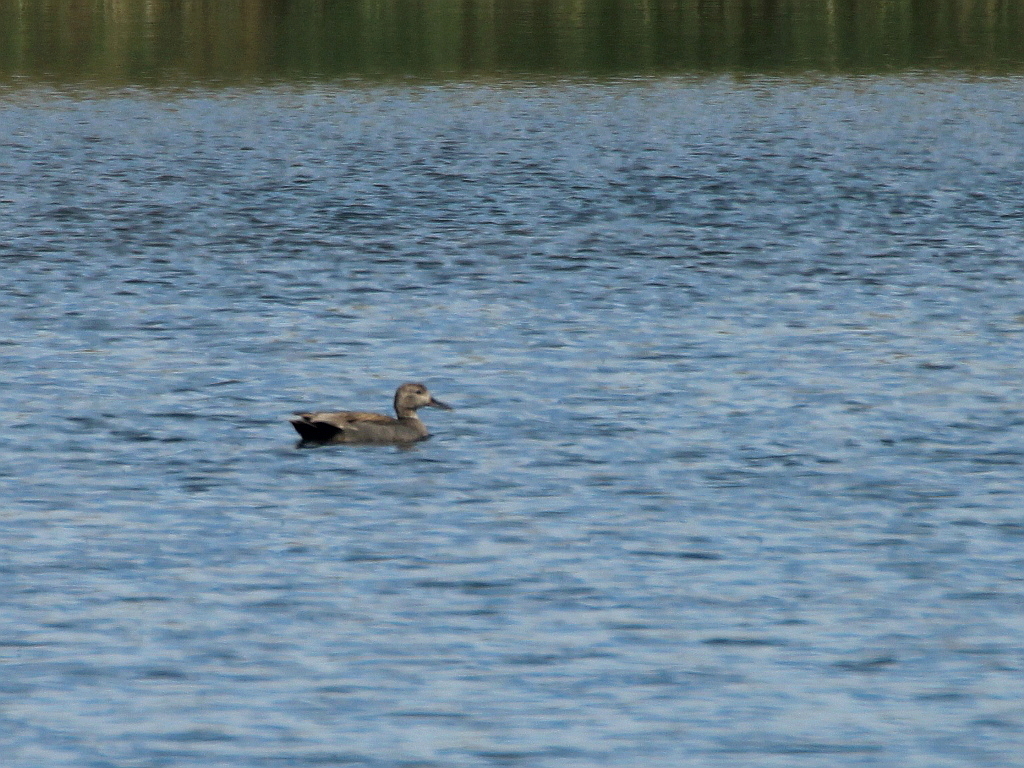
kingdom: Animalia
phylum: Chordata
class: Aves
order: Anseriformes
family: Anatidae
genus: Mareca
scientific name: Mareca strepera
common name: Gadwall
